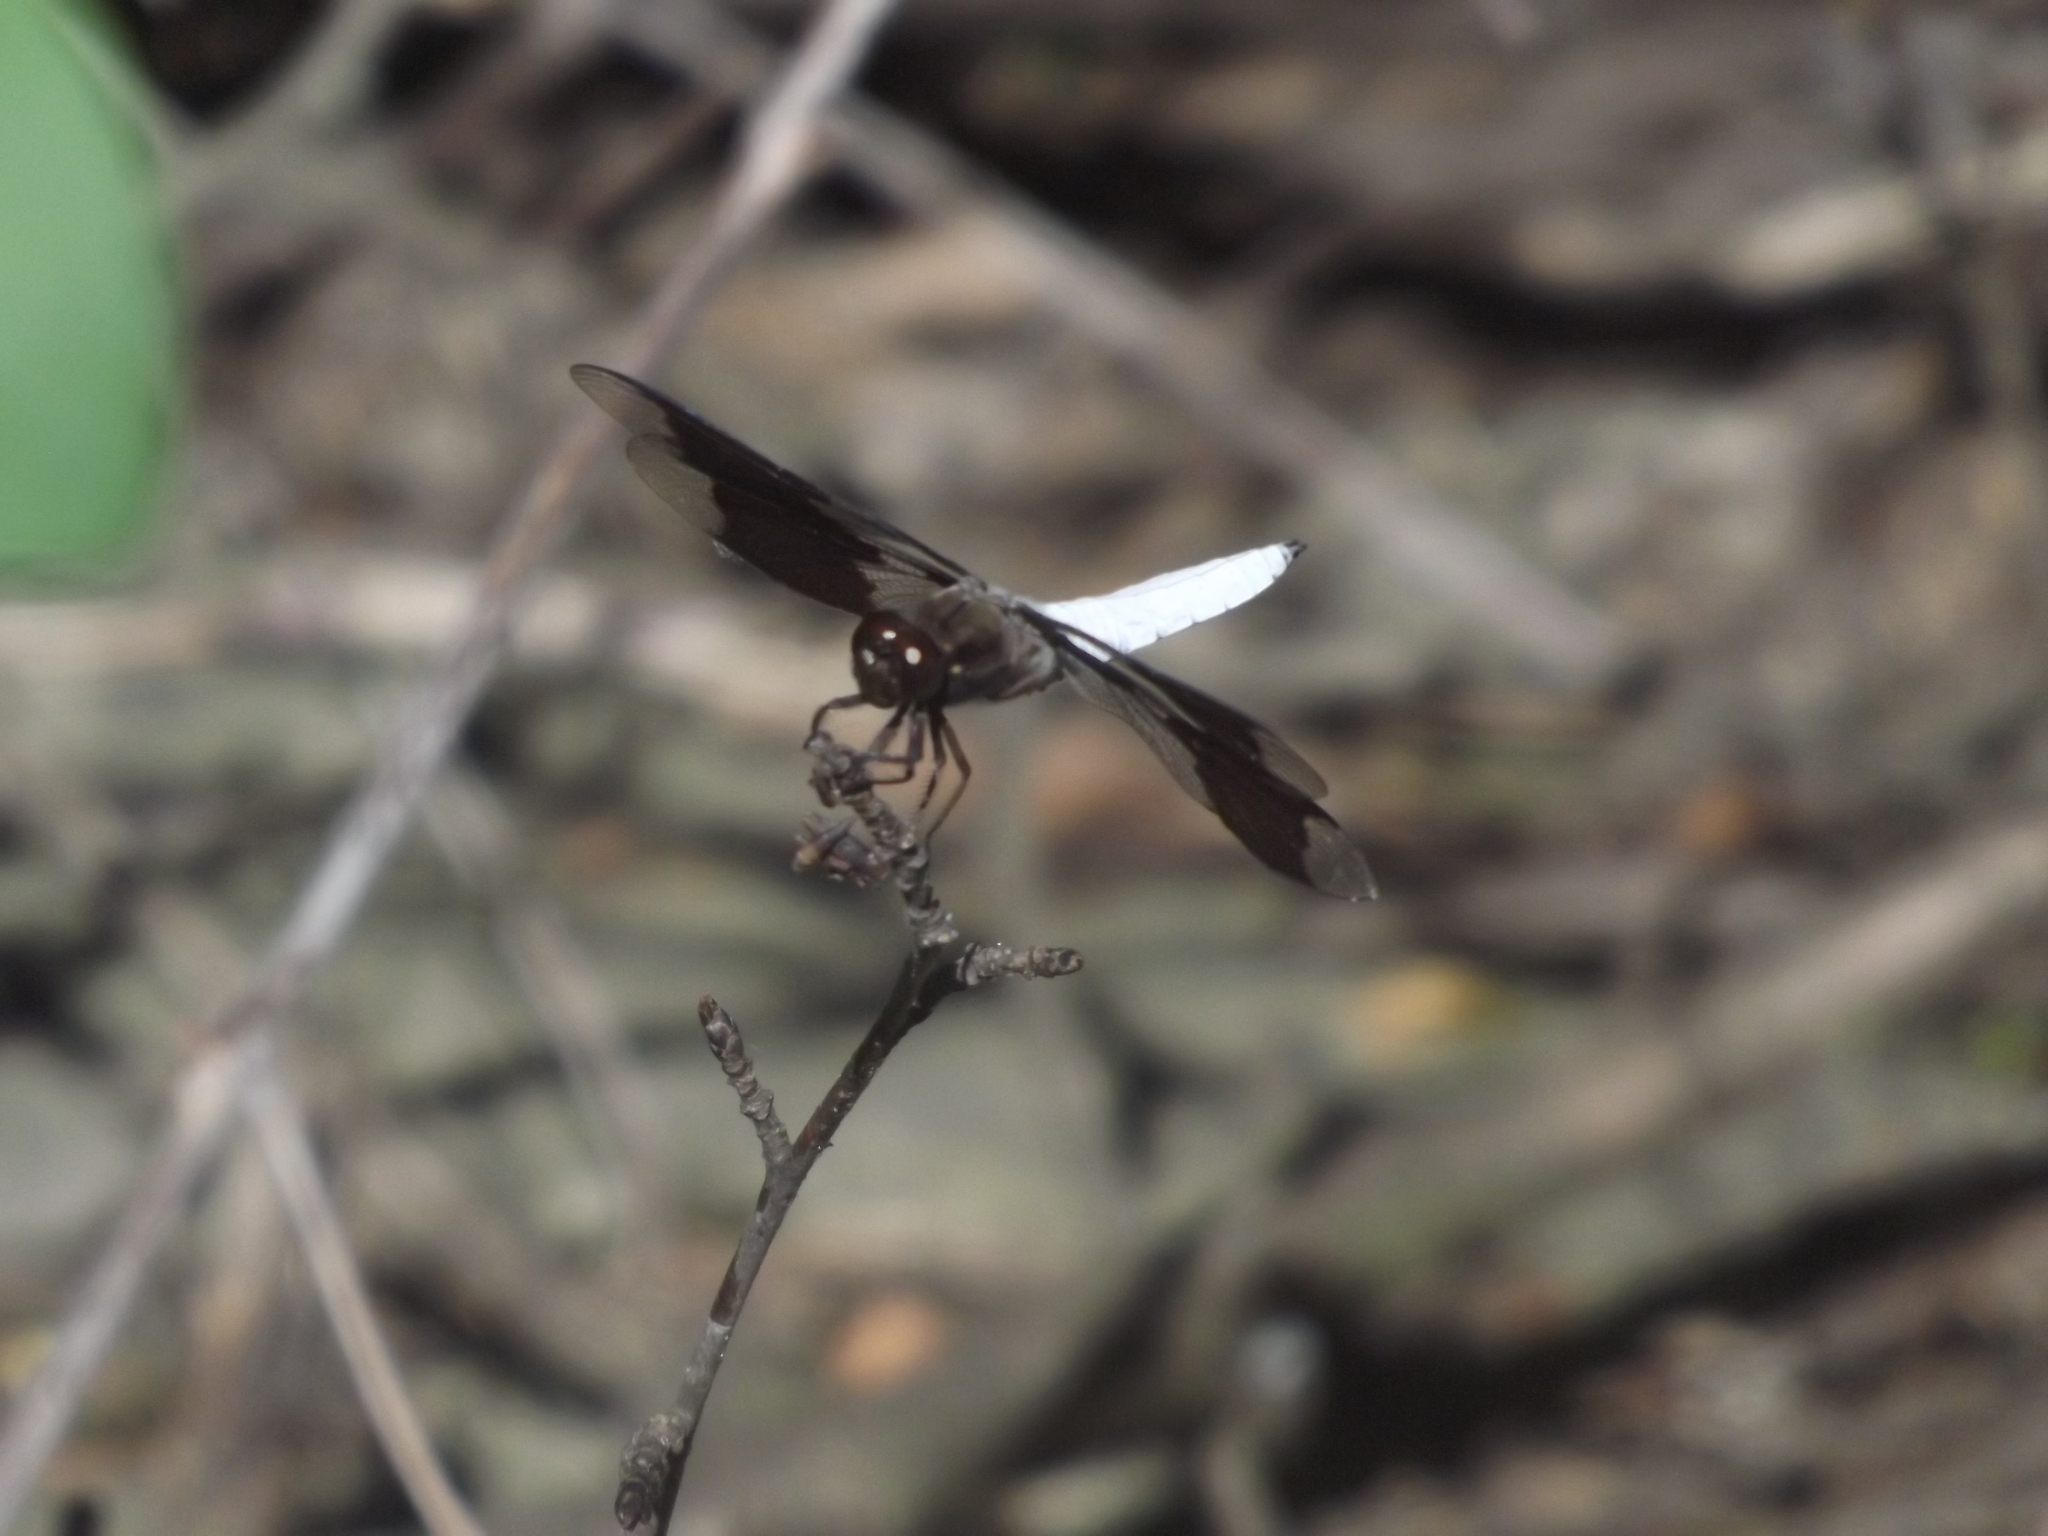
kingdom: Animalia
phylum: Arthropoda
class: Insecta
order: Odonata
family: Libellulidae
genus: Plathemis
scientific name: Plathemis lydia
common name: Common whitetail
